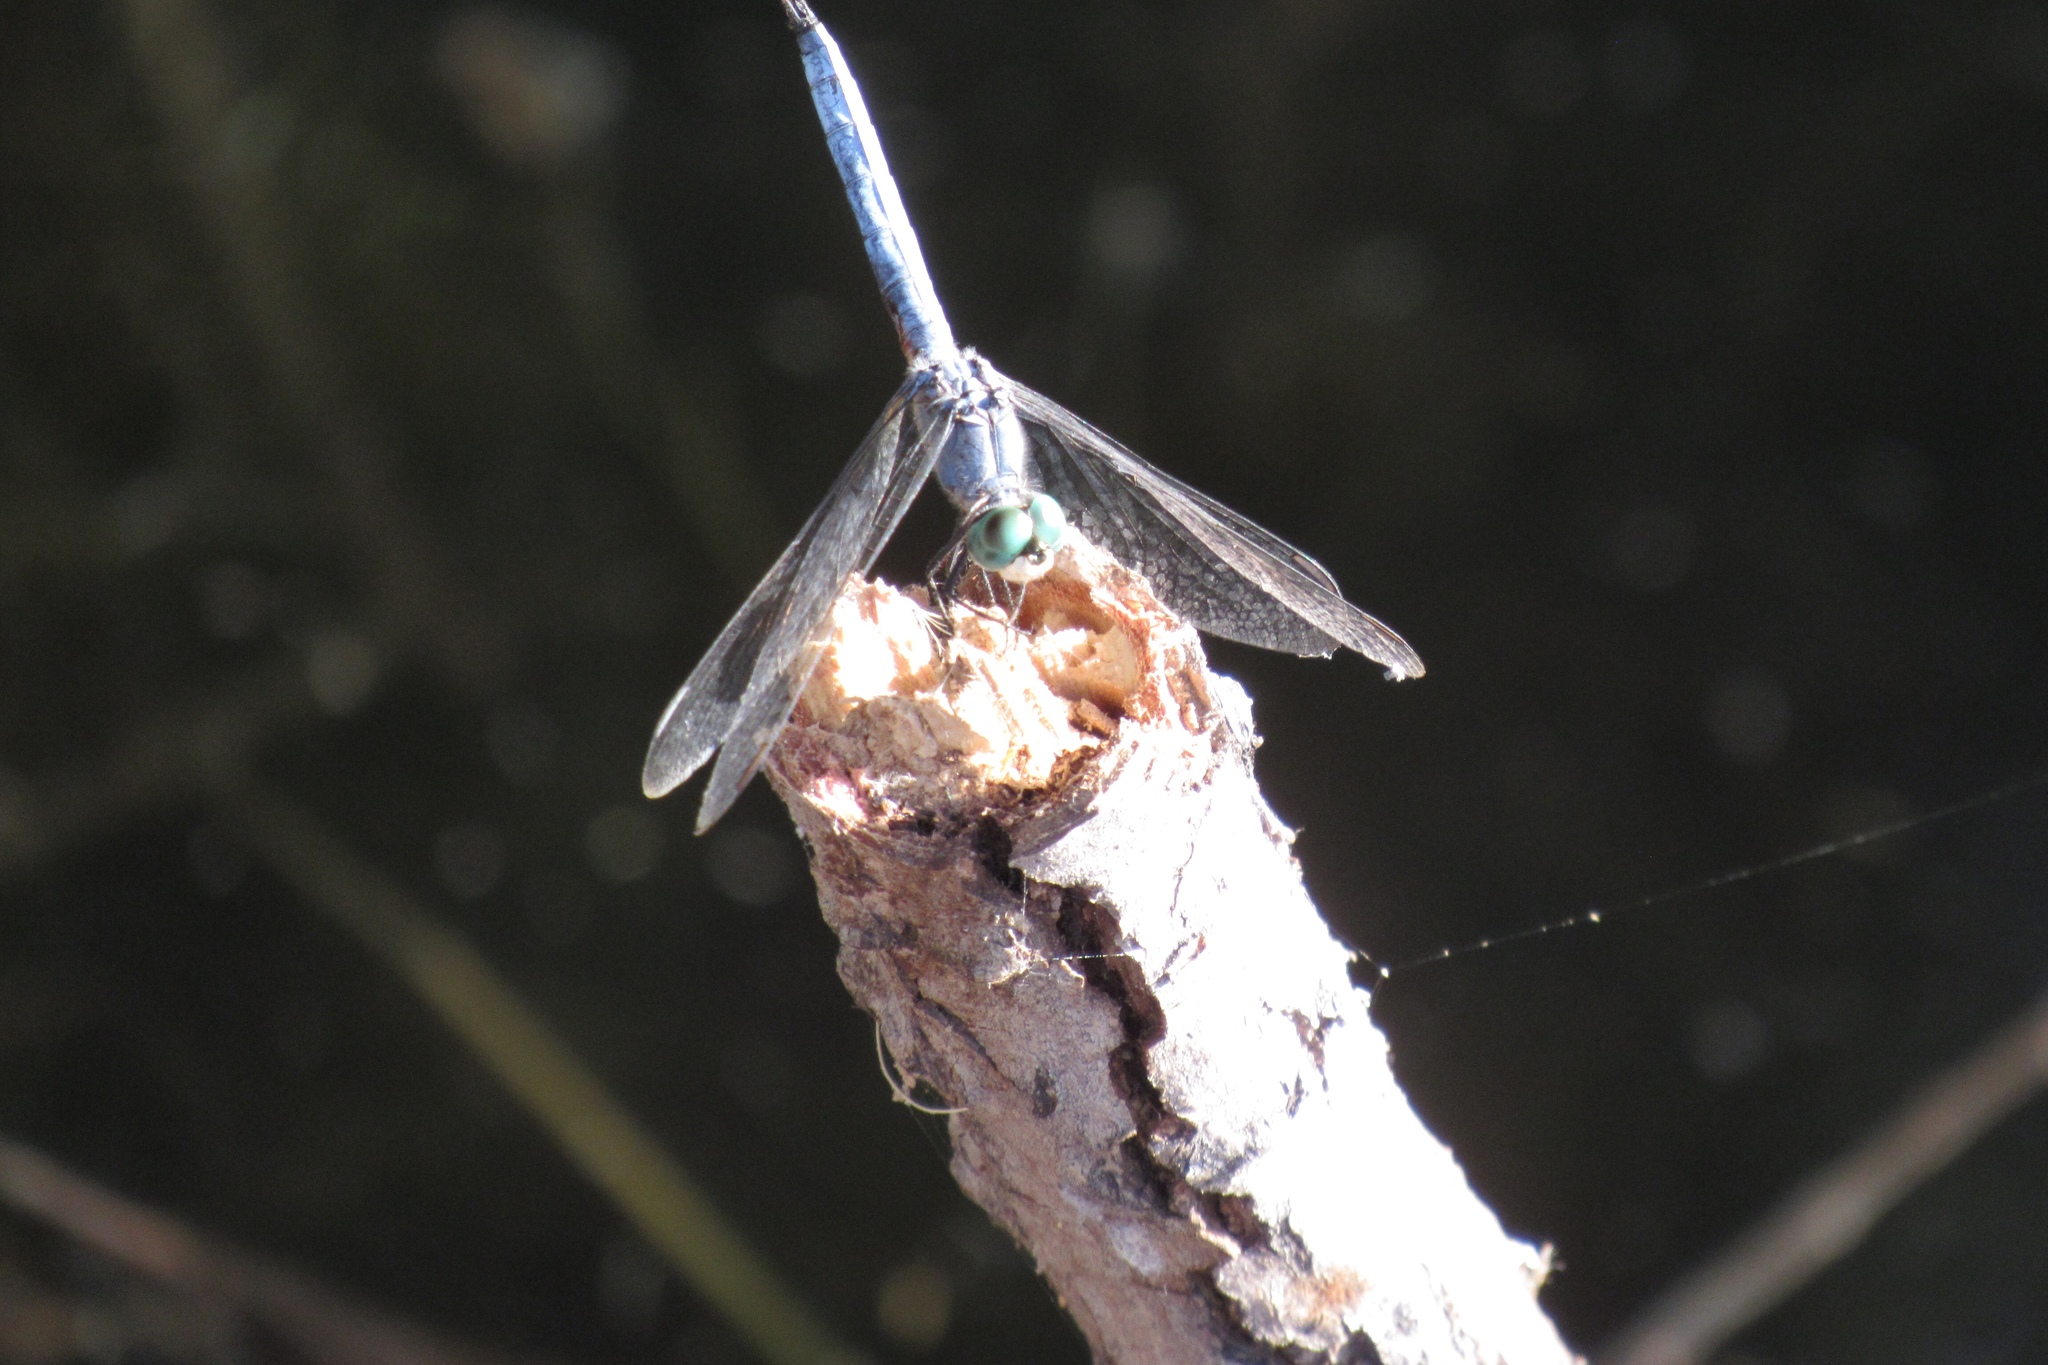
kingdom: Animalia
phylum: Arthropoda
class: Insecta
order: Odonata
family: Libellulidae
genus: Pachydiplax
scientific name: Pachydiplax longipennis
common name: Blue dasher
